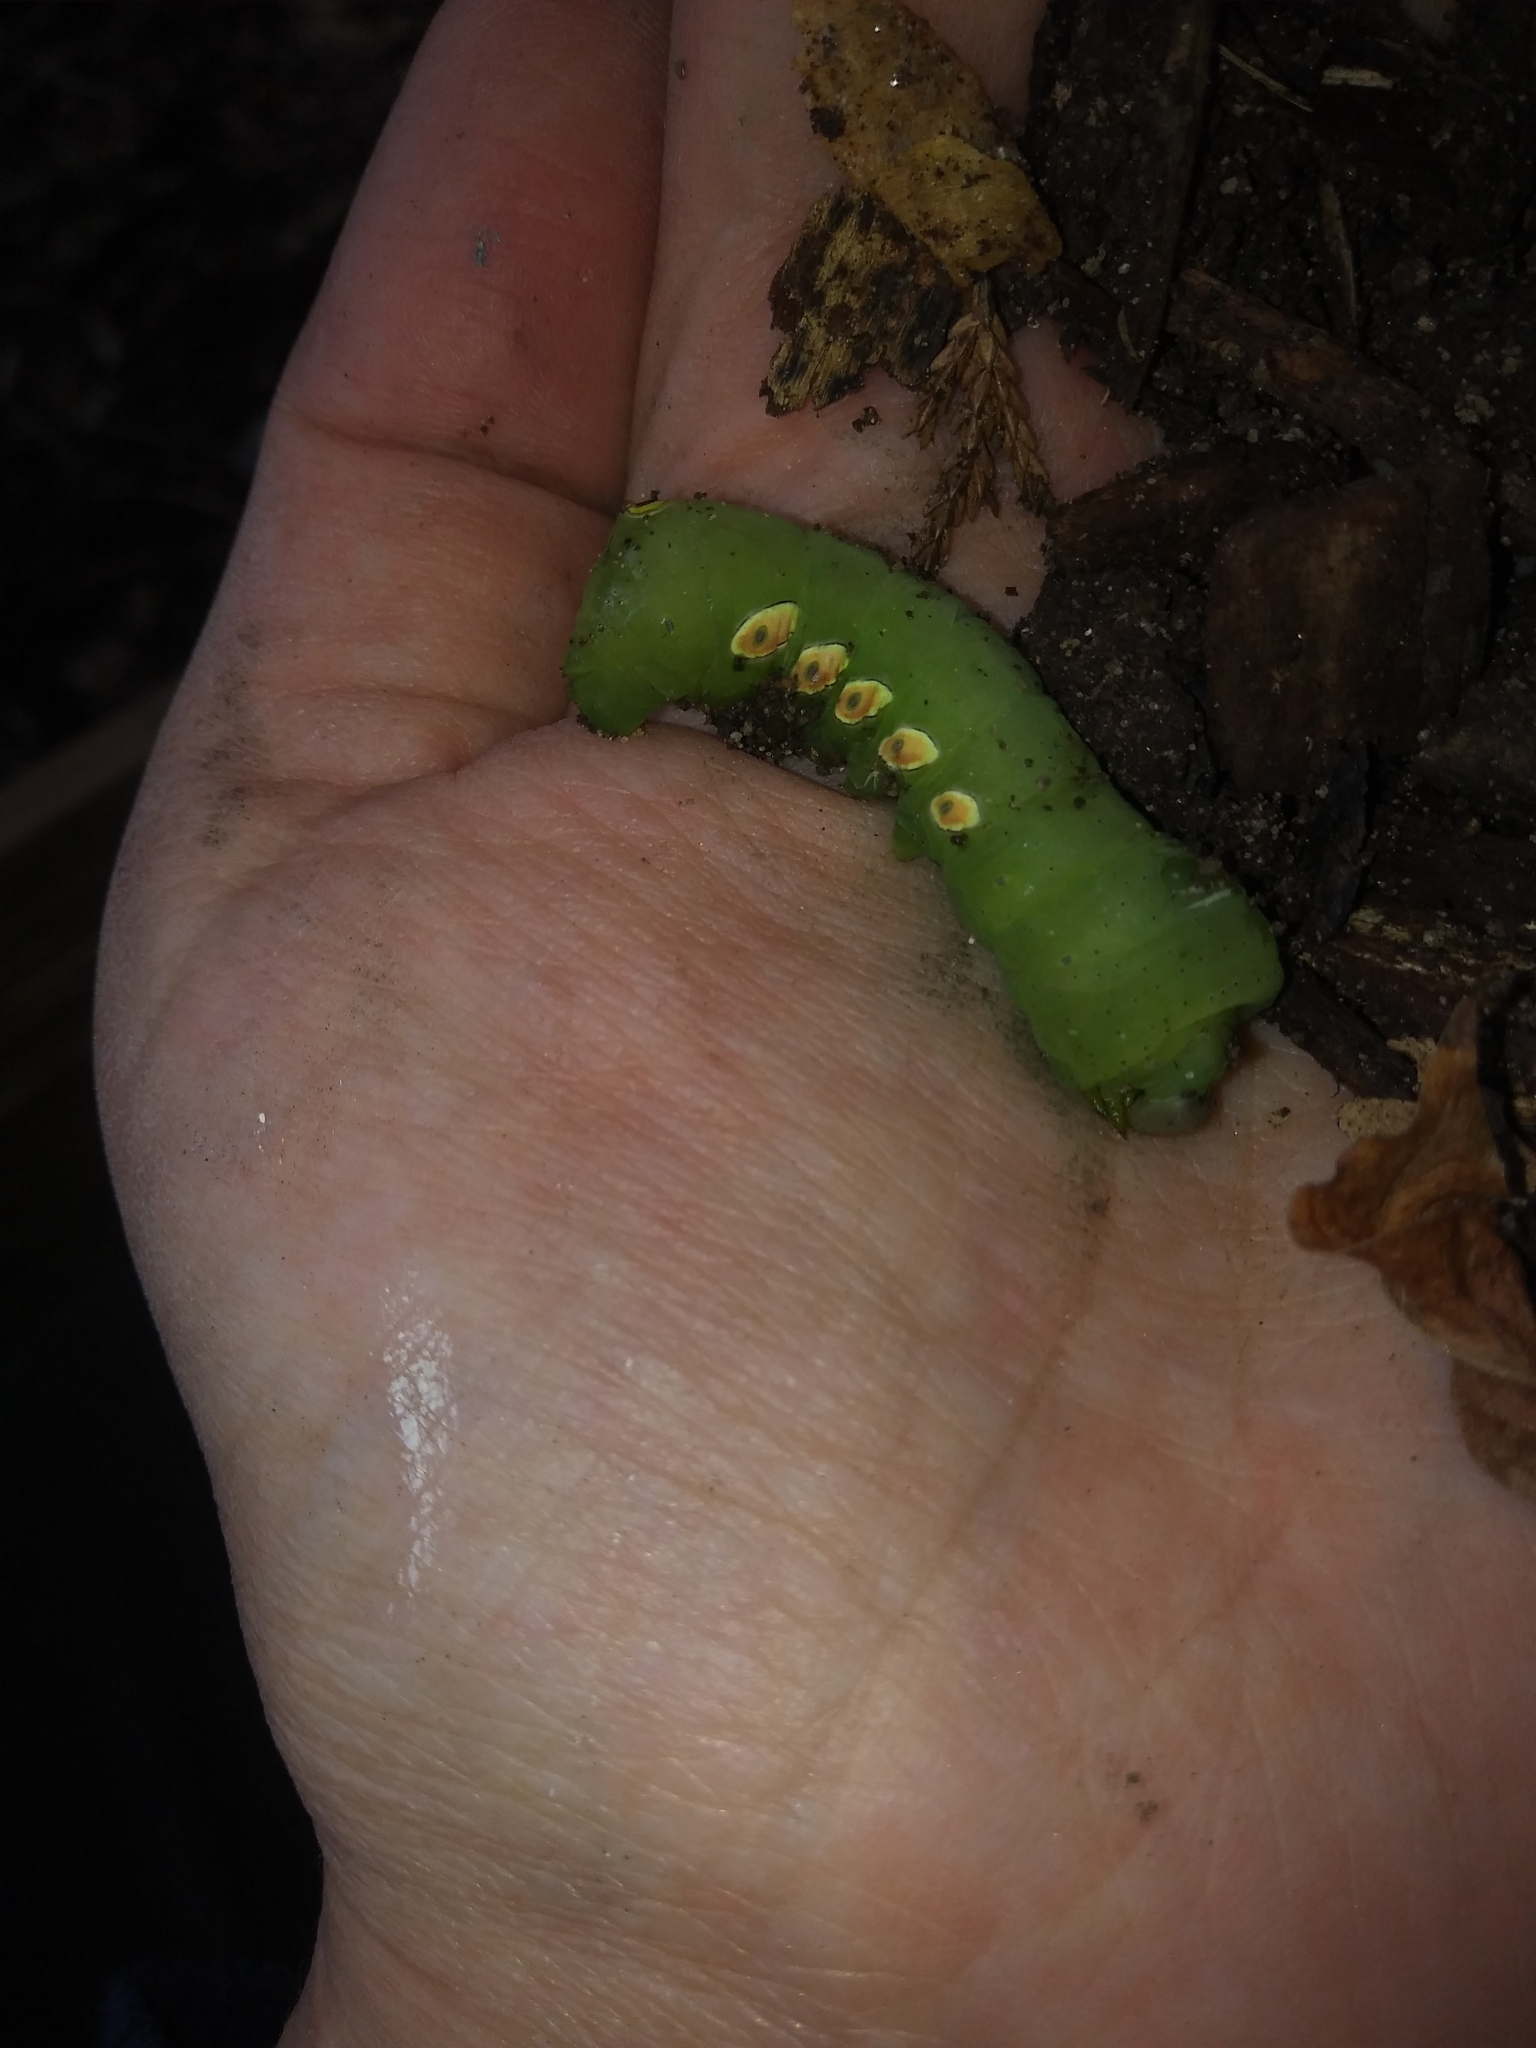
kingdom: Animalia
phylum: Arthropoda
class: Insecta
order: Lepidoptera
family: Sphingidae
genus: Eumorpha
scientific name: Eumorpha pandorus
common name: Pandora sphinx
